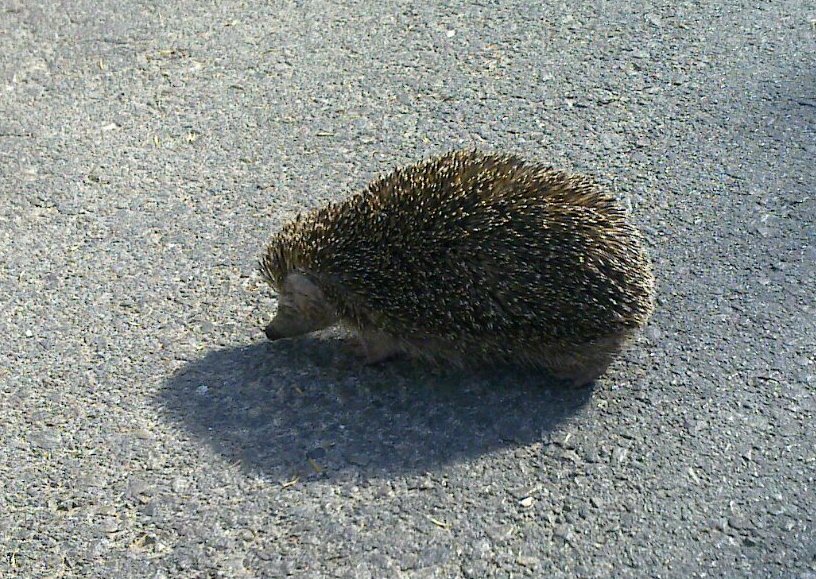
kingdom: Animalia
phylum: Chordata
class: Mammalia
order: Erinaceomorpha
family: Erinaceidae
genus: Erinaceus
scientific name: Erinaceus concolor
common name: Southern white-breasted hedgehog
